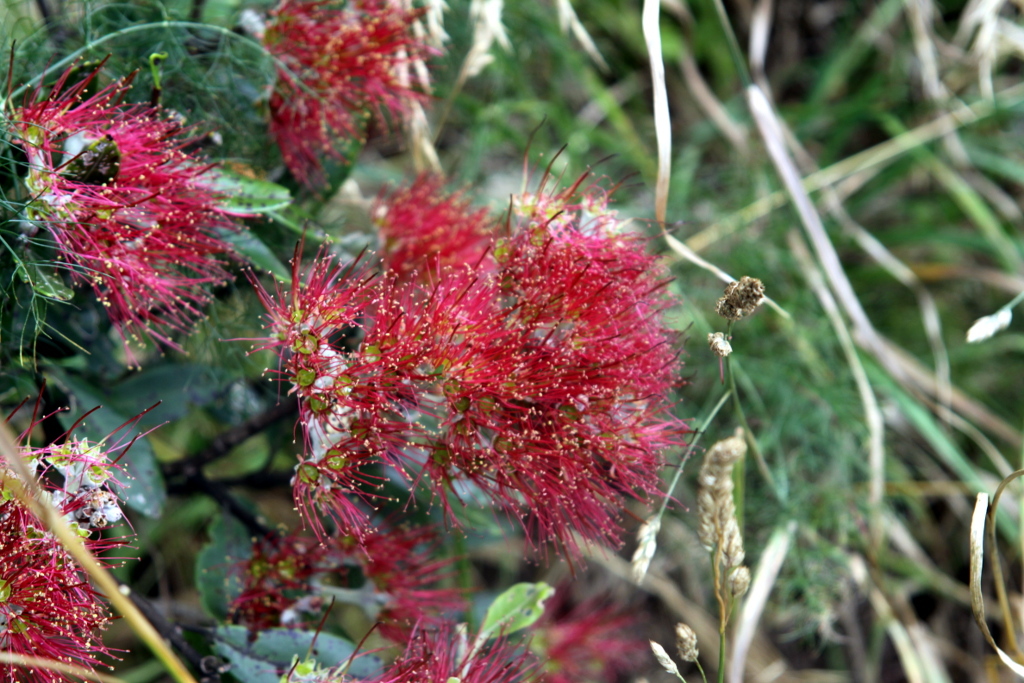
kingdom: Plantae
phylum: Tracheophyta
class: Magnoliopsida
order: Myrtales
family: Myrtaceae
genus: Metrosideros
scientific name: Metrosideros excelsa
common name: New zealand christmastree
